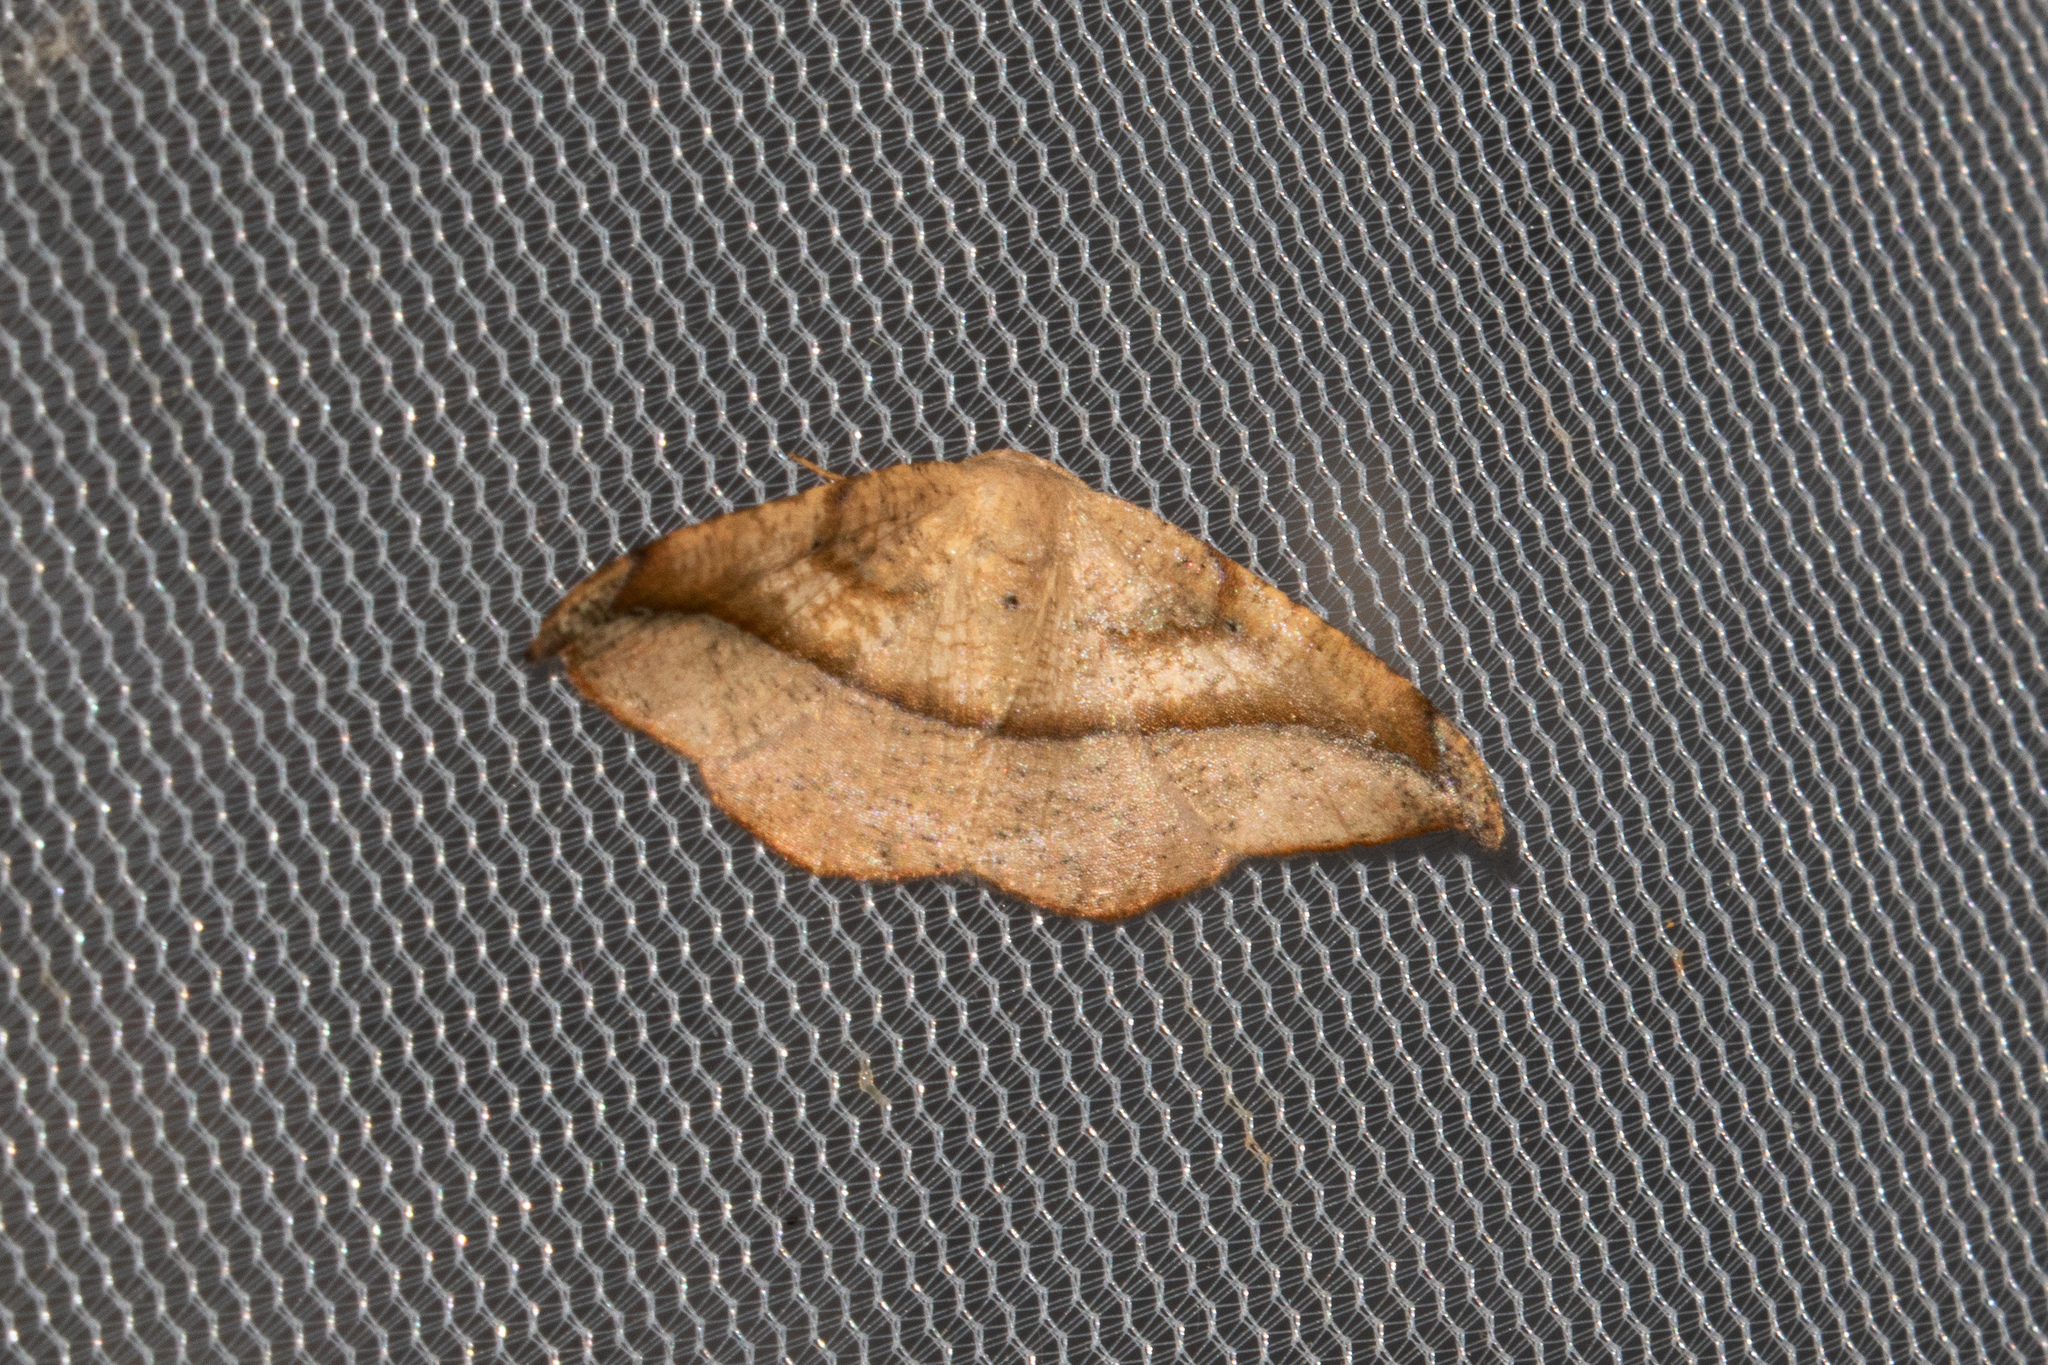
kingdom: Animalia
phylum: Arthropoda
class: Insecta
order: Lepidoptera
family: Geometridae
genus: Patalene
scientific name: Patalene olyzonaria
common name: Juniper geometer moth
